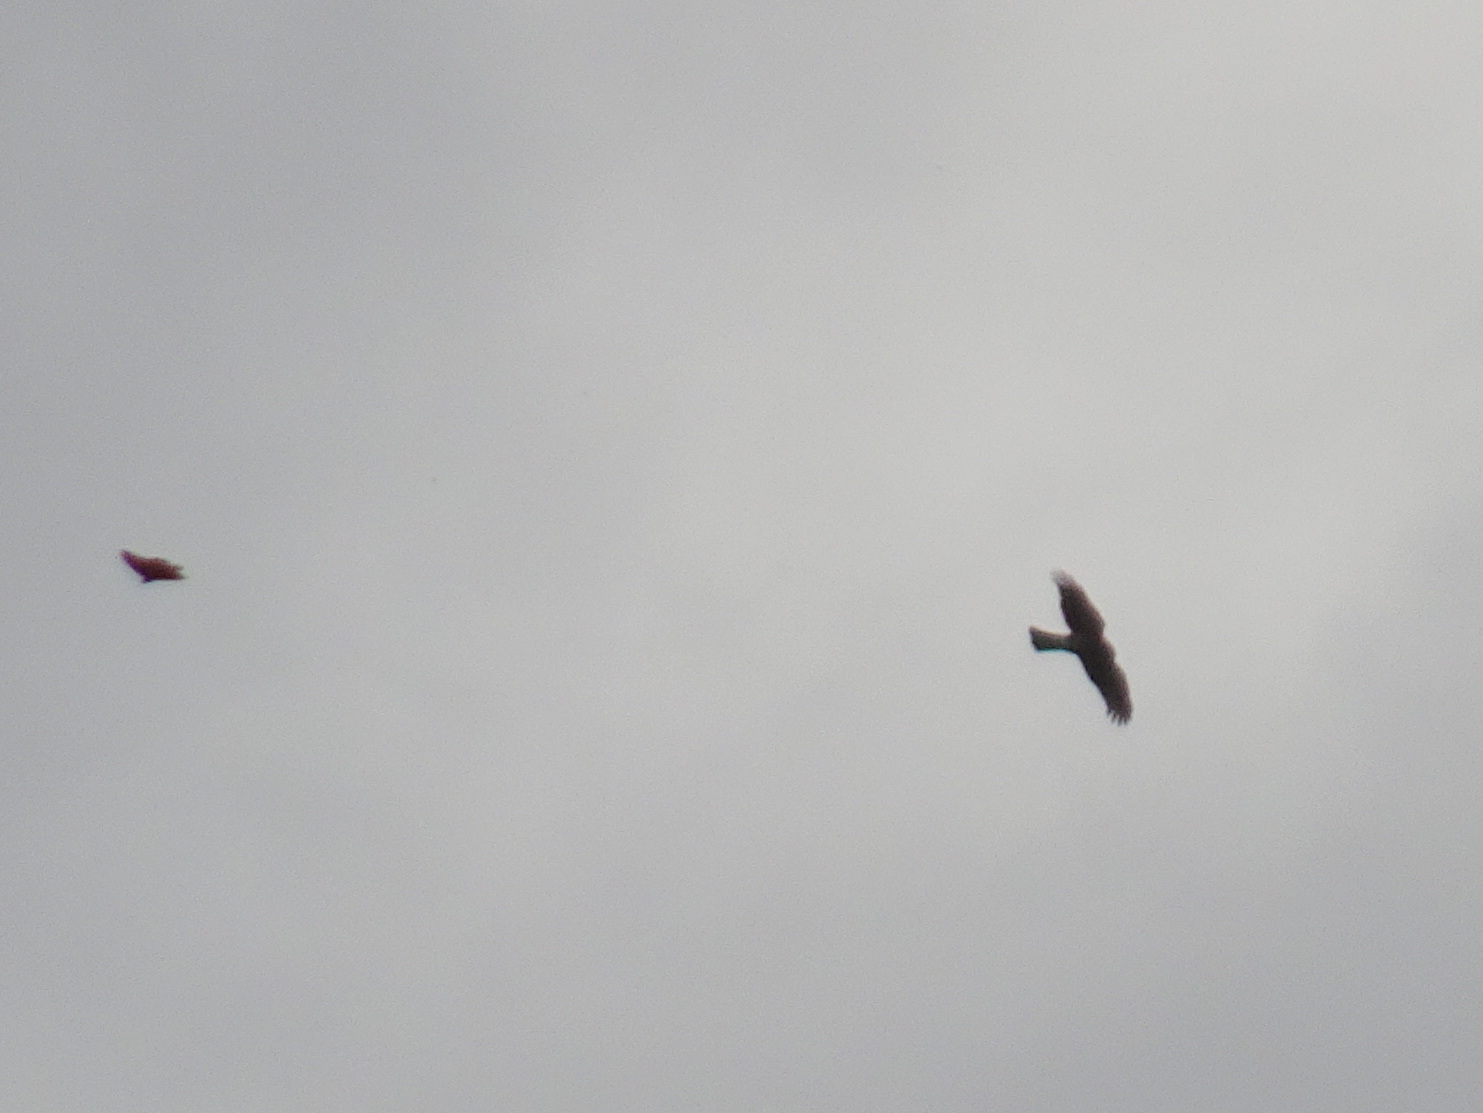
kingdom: Animalia
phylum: Chordata
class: Aves
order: Accipitriformes
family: Accipitridae
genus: Accipiter
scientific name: Accipiter striatus
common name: Sharp-shinned hawk
